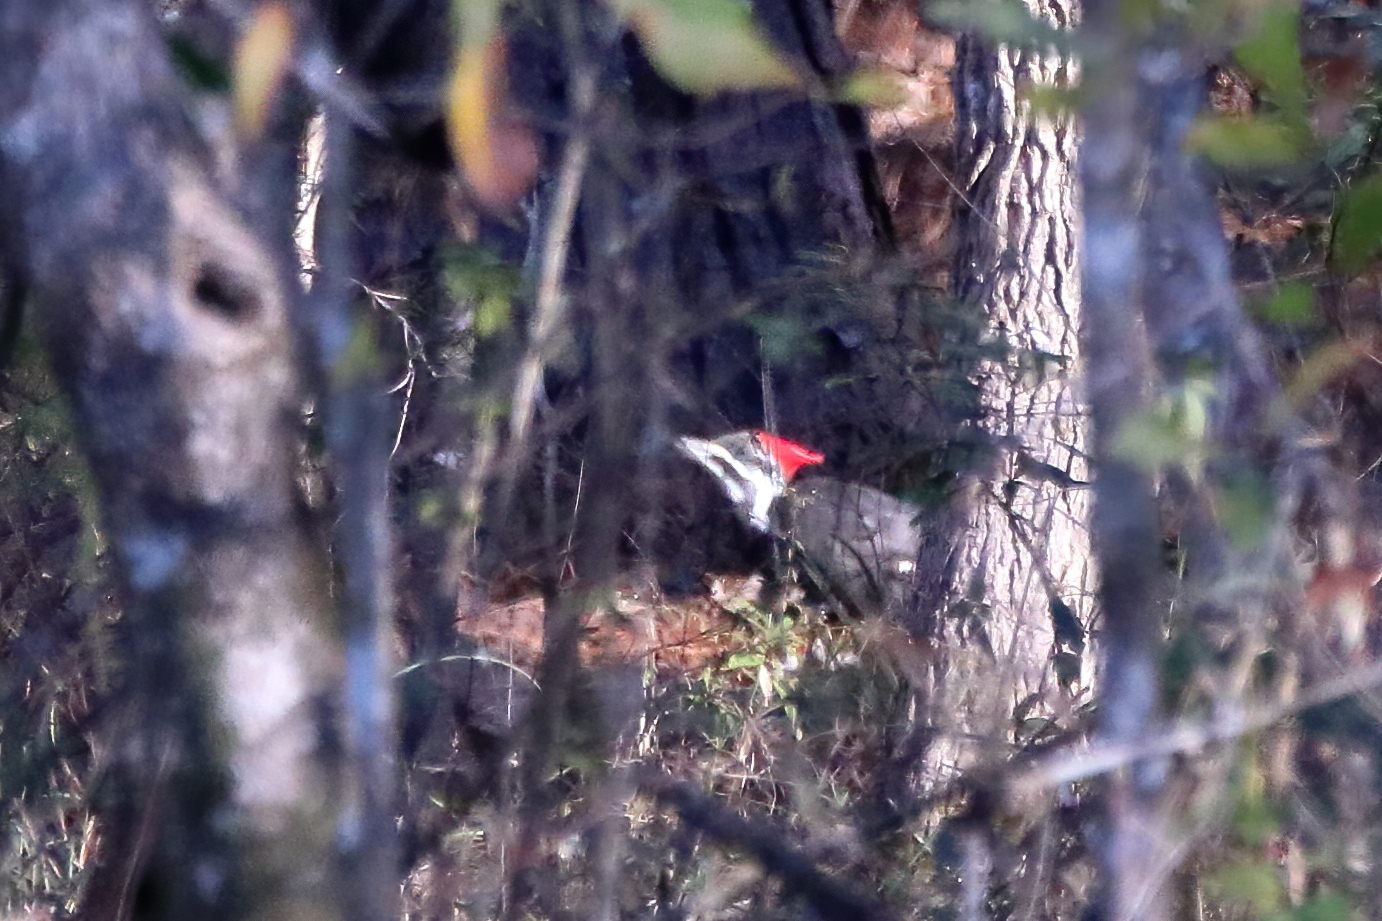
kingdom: Animalia
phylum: Chordata
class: Aves
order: Piciformes
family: Picidae
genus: Dryocopus
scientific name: Dryocopus pileatus
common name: Pileated woodpecker
